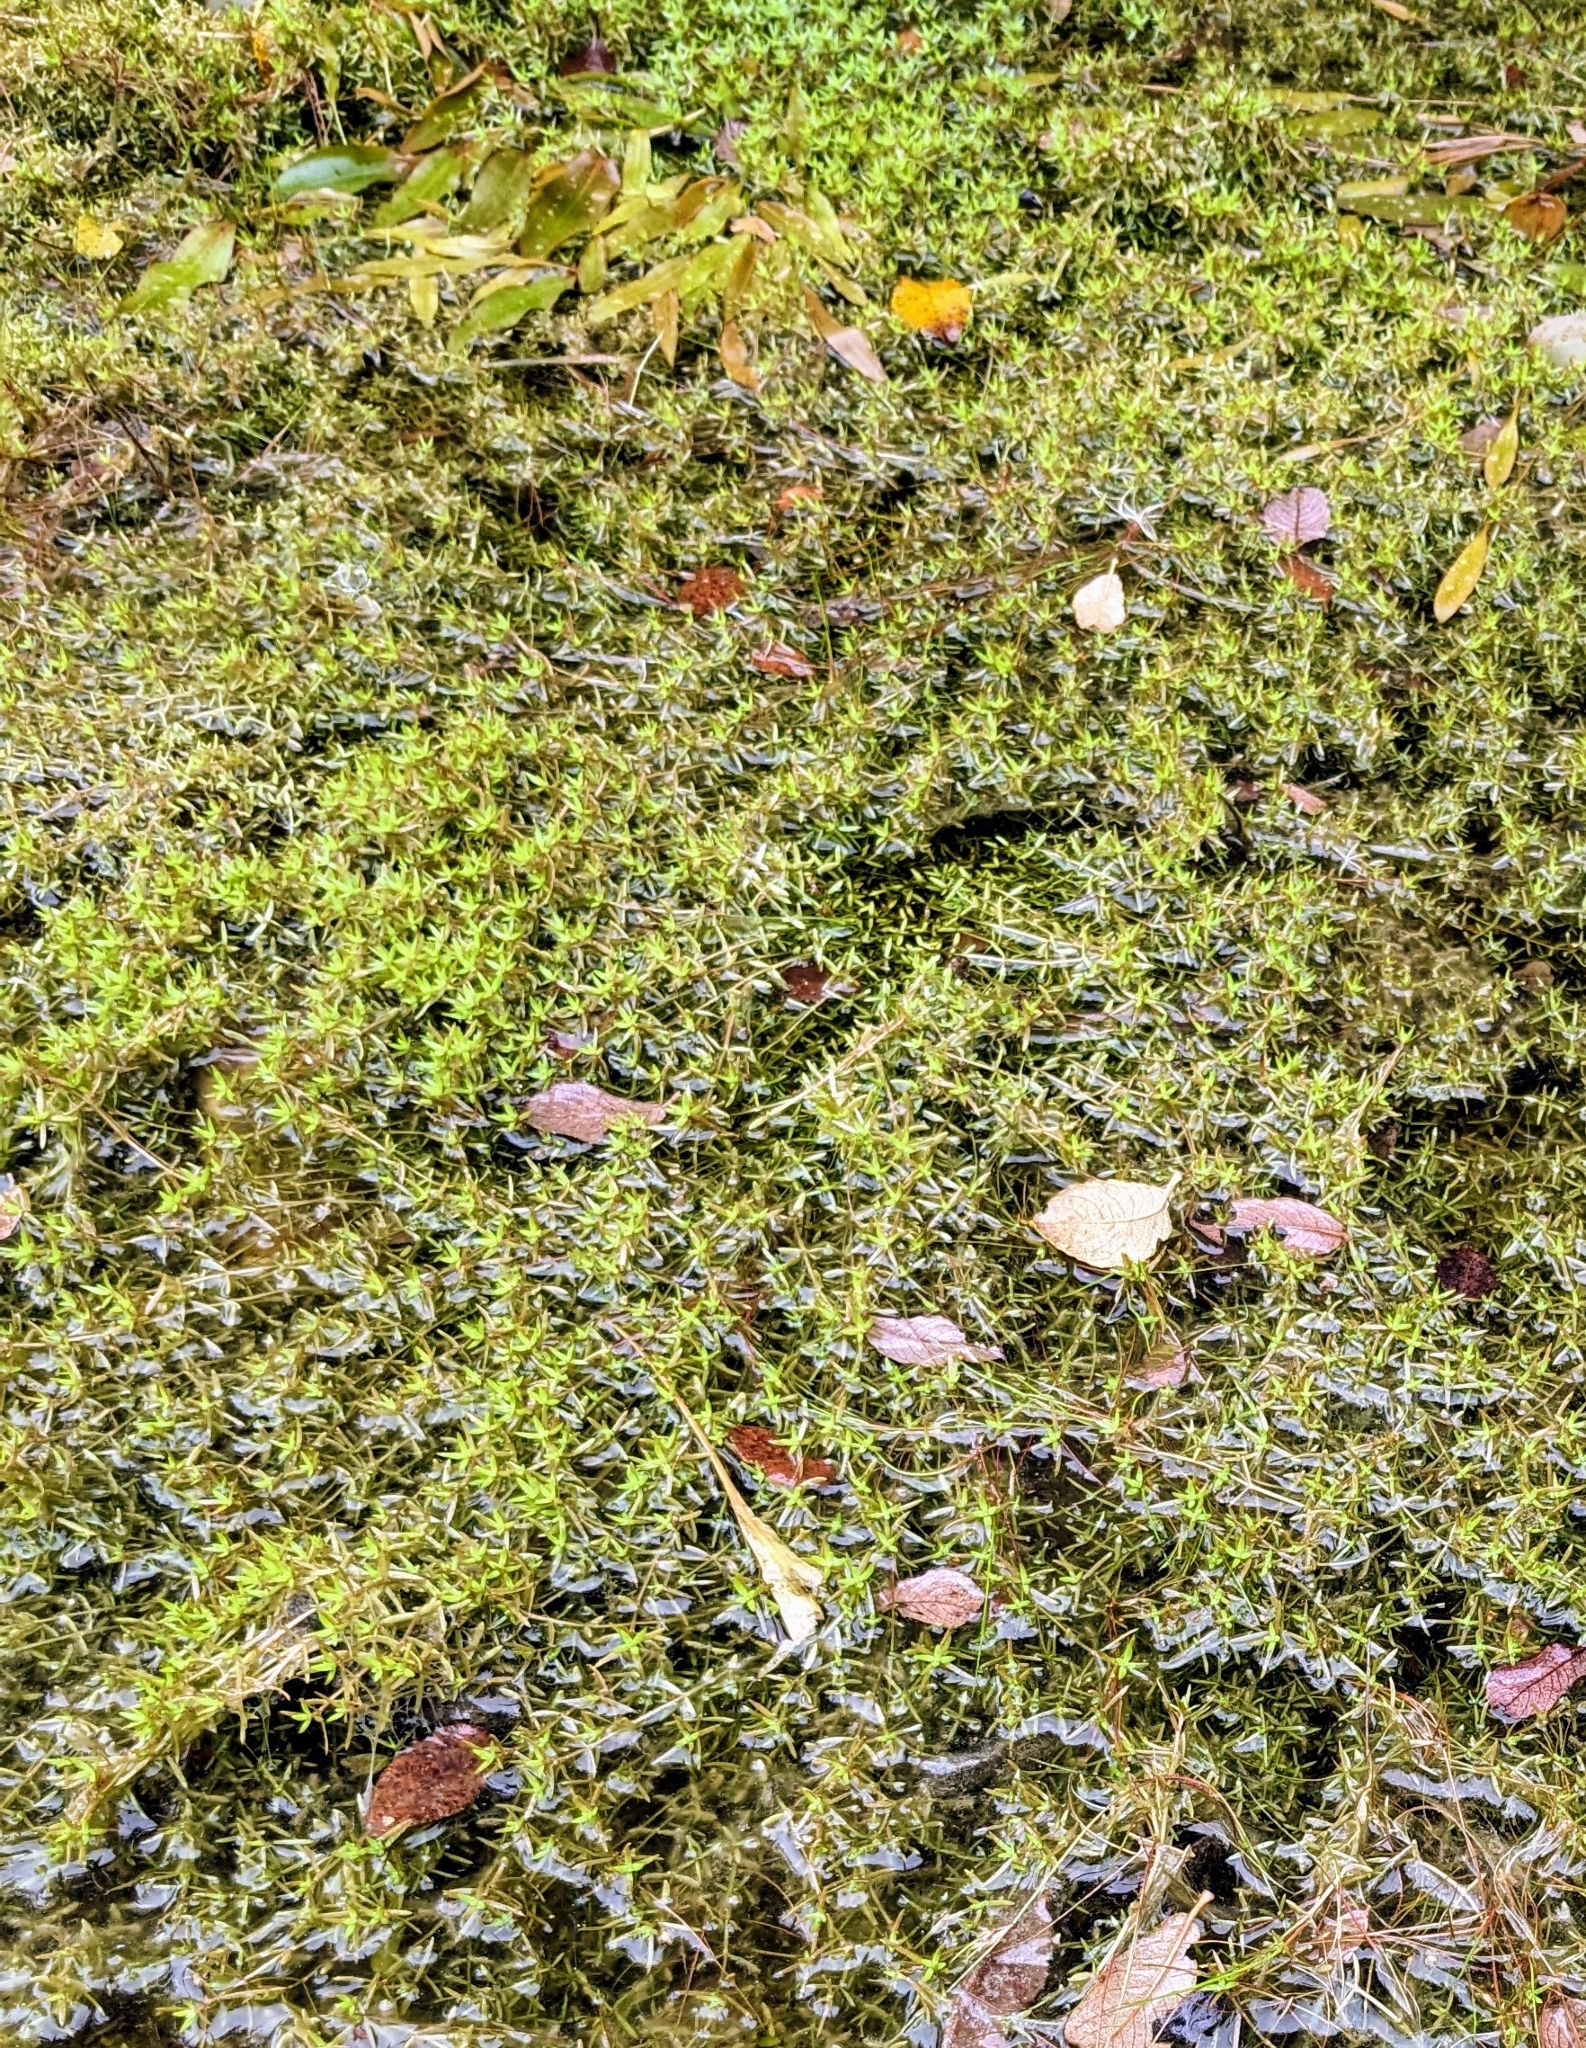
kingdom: Plantae
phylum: Tracheophyta
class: Magnoliopsida
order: Saxifragales
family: Crassulaceae
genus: Crassula
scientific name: Crassula helmsii
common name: New zealand pigmyweed
